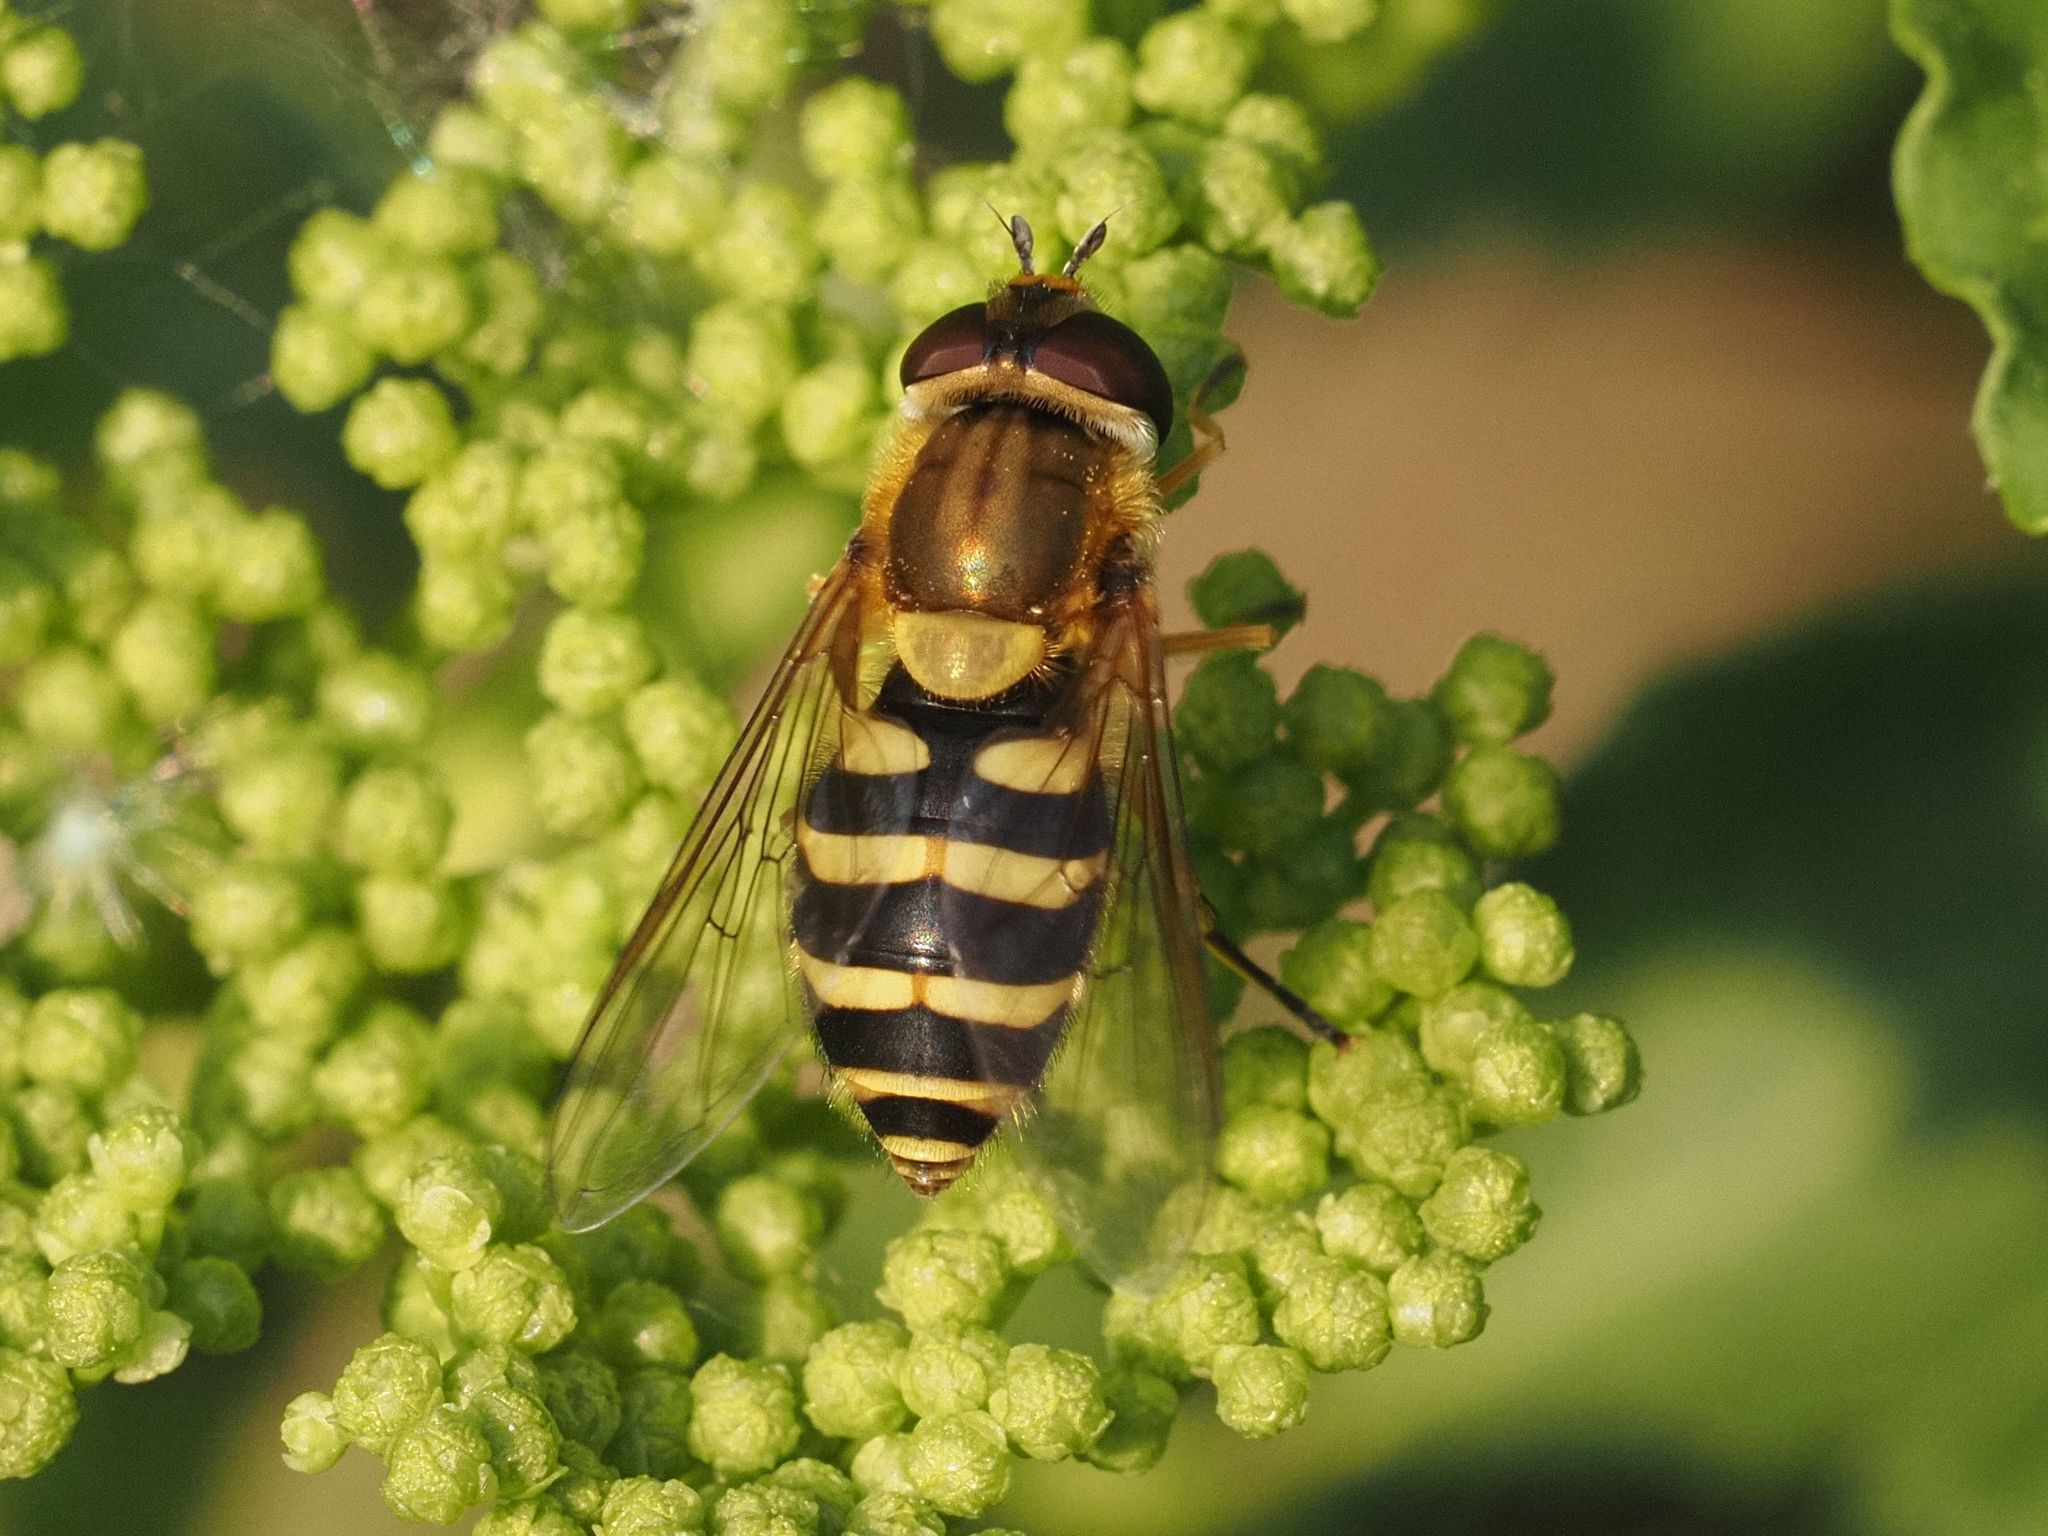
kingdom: Animalia
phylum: Arthropoda
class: Insecta
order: Diptera
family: Syrphidae
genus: Syrphus
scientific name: Syrphus ribesii
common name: Common flower fly
